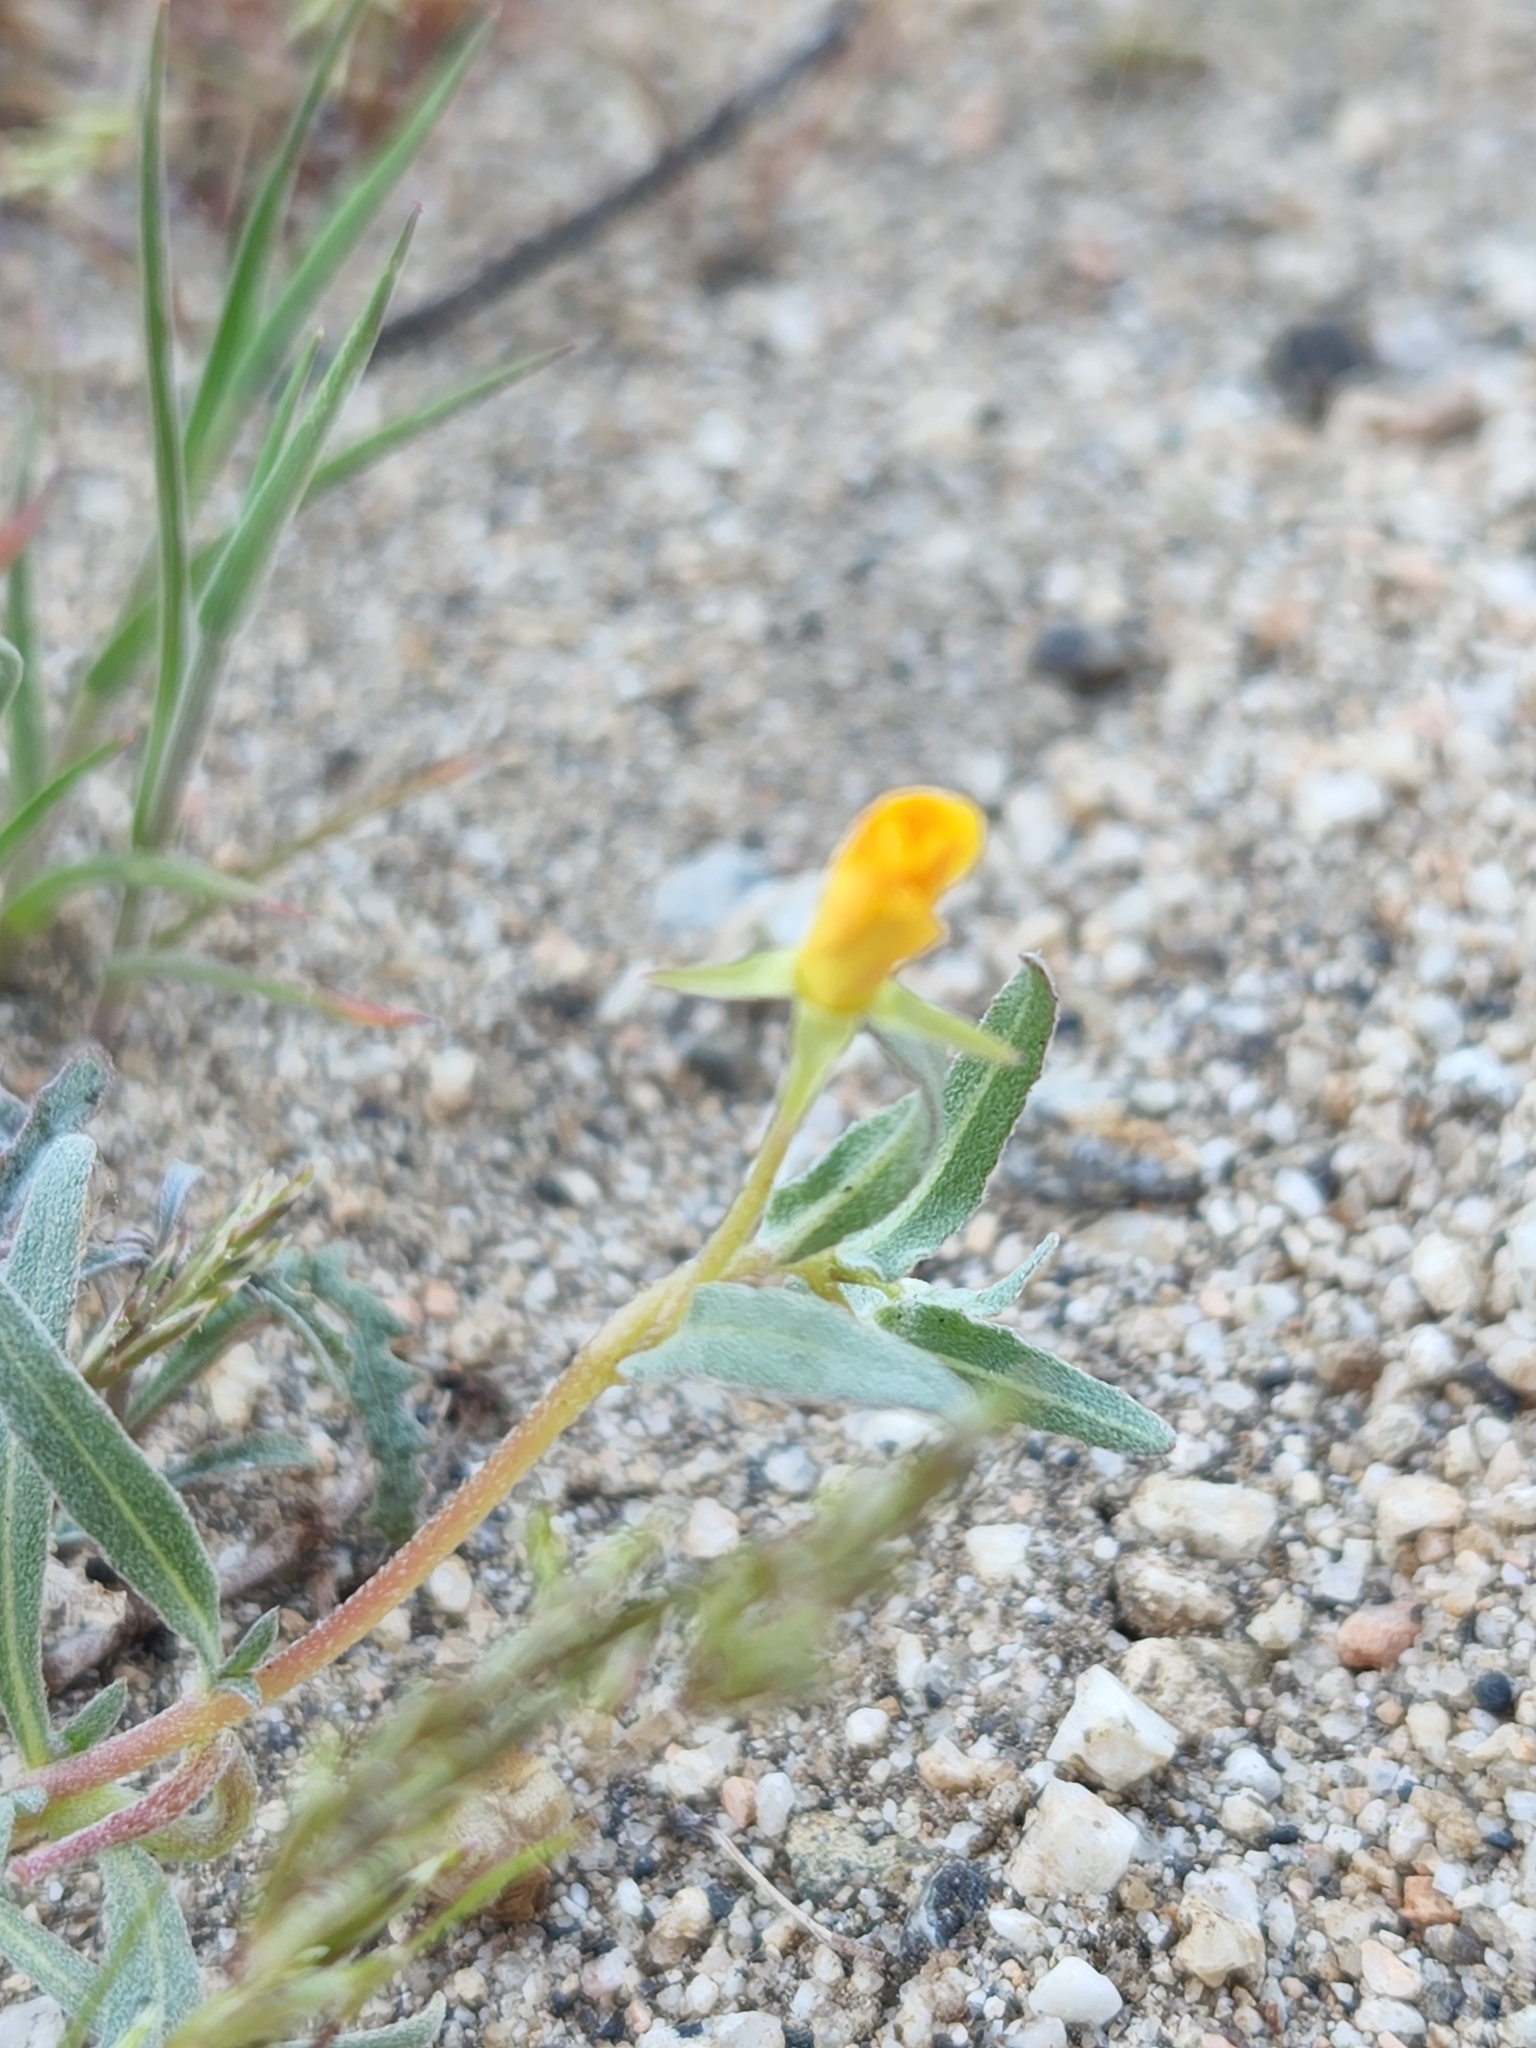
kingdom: Plantae
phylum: Tracheophyta
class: Magnoliopsida
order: Myrtales
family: Onagraceae
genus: Camissoniopsis
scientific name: Camissoniopsis pallida
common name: Paleyellow suncup
